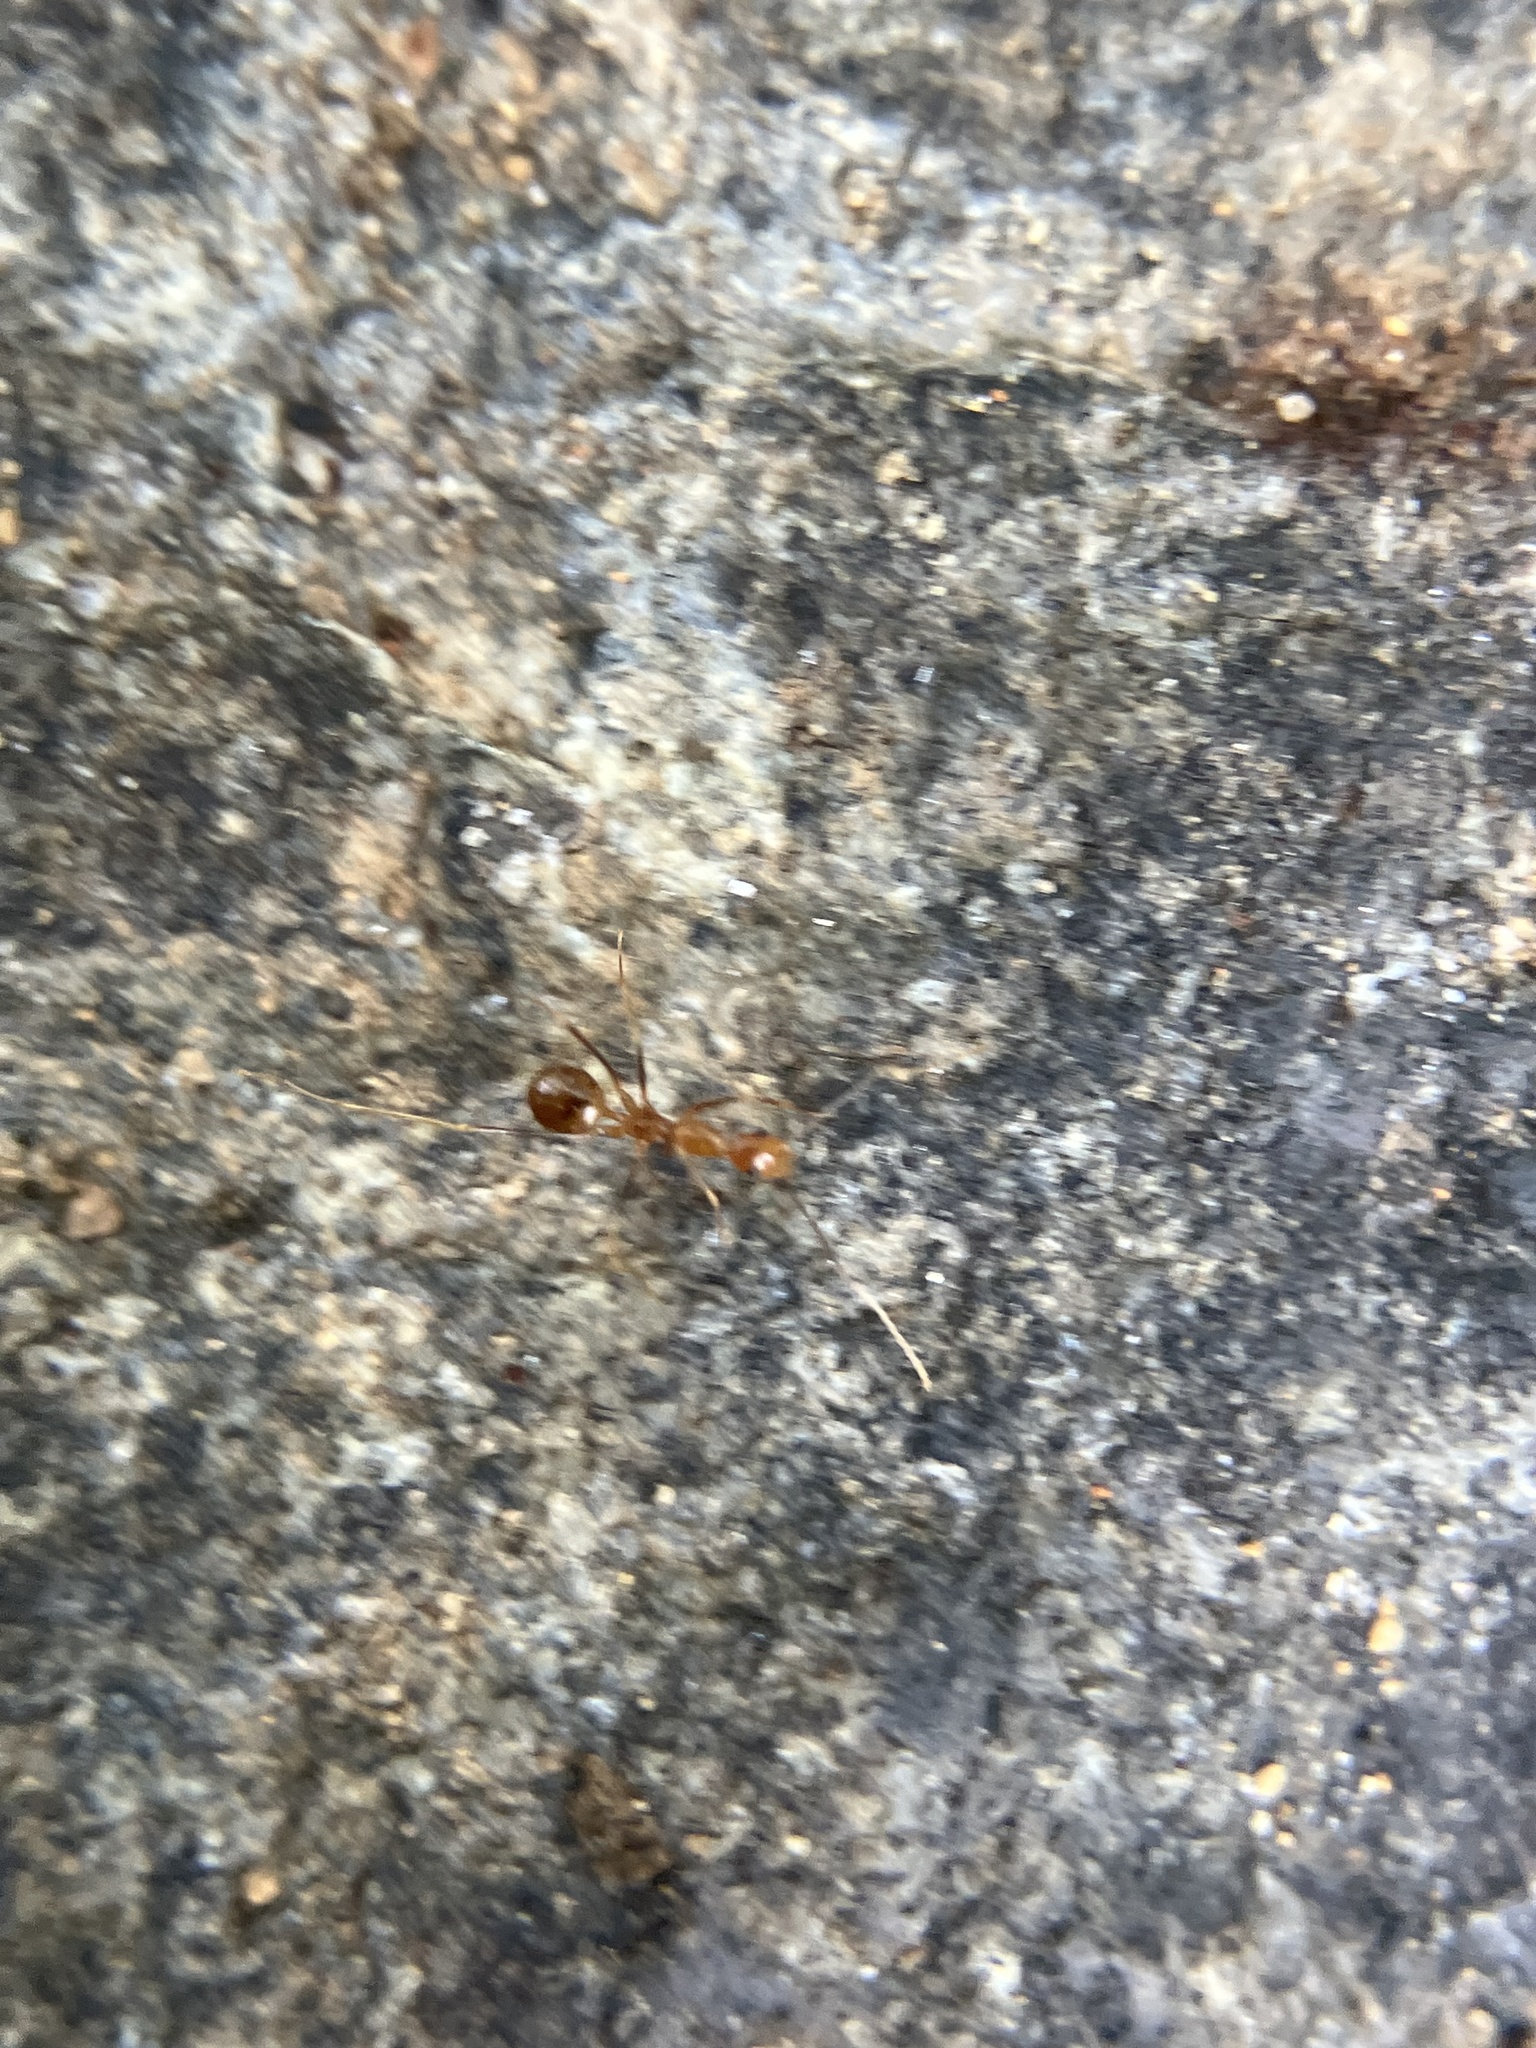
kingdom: Animalia
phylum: Arthropoda
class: Insecta
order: Hymenoptera
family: Formicidae
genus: Anoplolepis
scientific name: Anoplolepis gracilipes
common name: Ant
